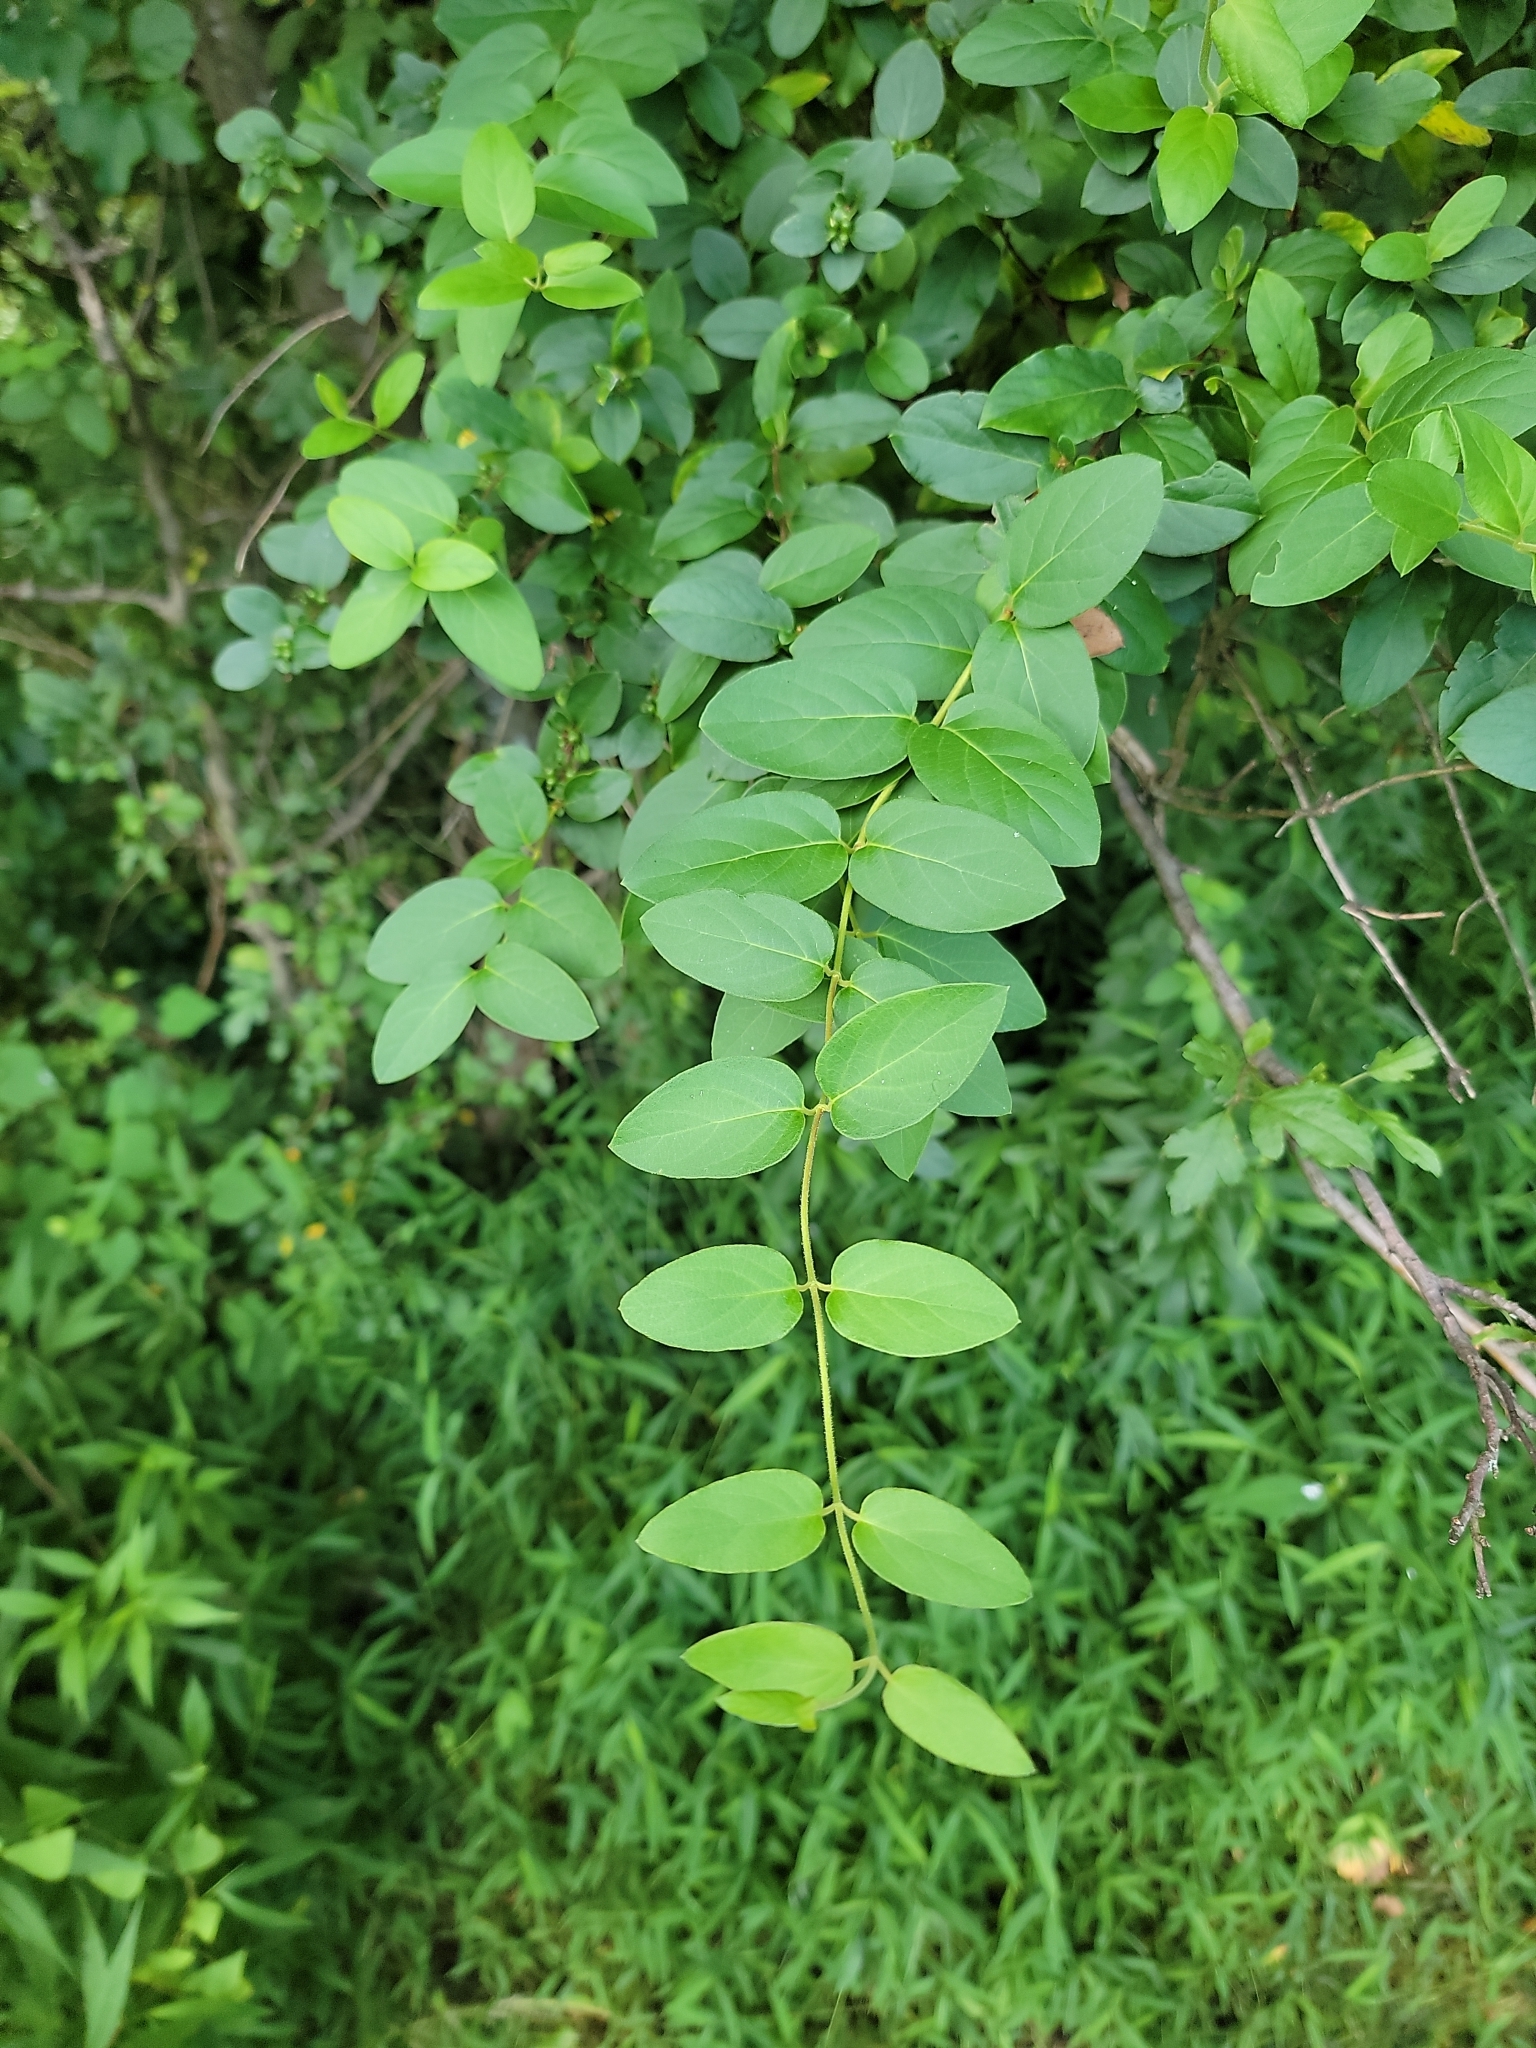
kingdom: Plantae
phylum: Tracheophyta
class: Magnoliopsida
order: Dipsacales
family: Caprifoliaceae
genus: Lonicera
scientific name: Lonicera japonica
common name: Japanese honeysuckle
